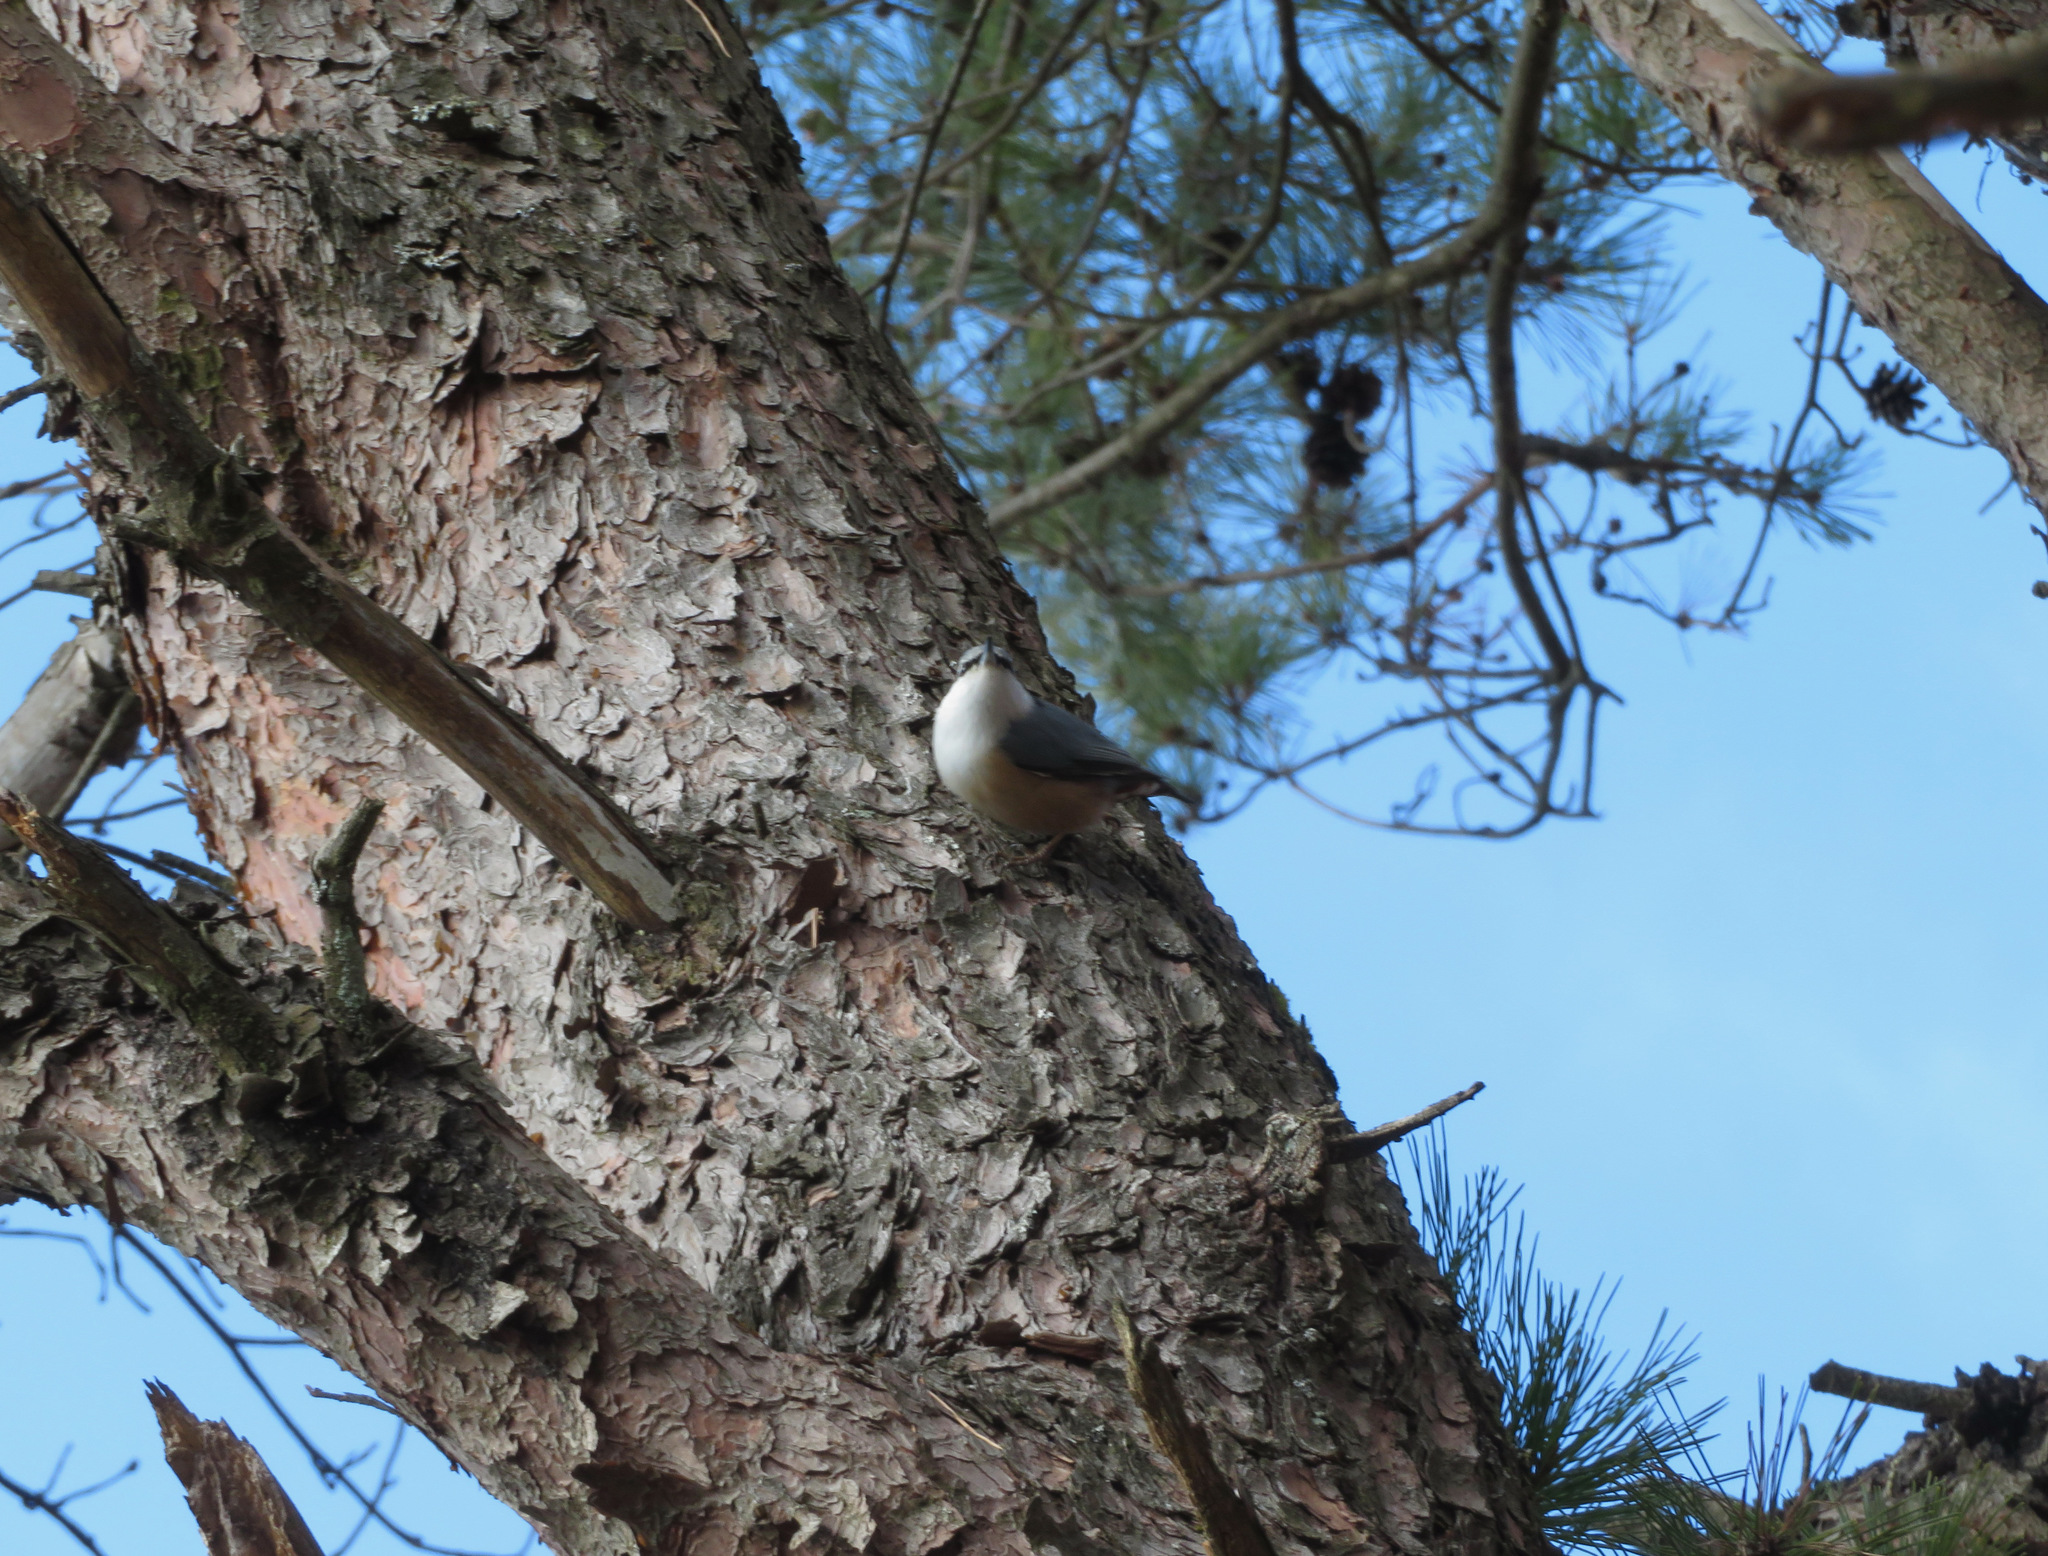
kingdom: Animalia
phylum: Chordata
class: Aves
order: Passeriformes
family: Sittidae
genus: Sitta
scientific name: Sitta europaea
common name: Eurasian nuthatch
